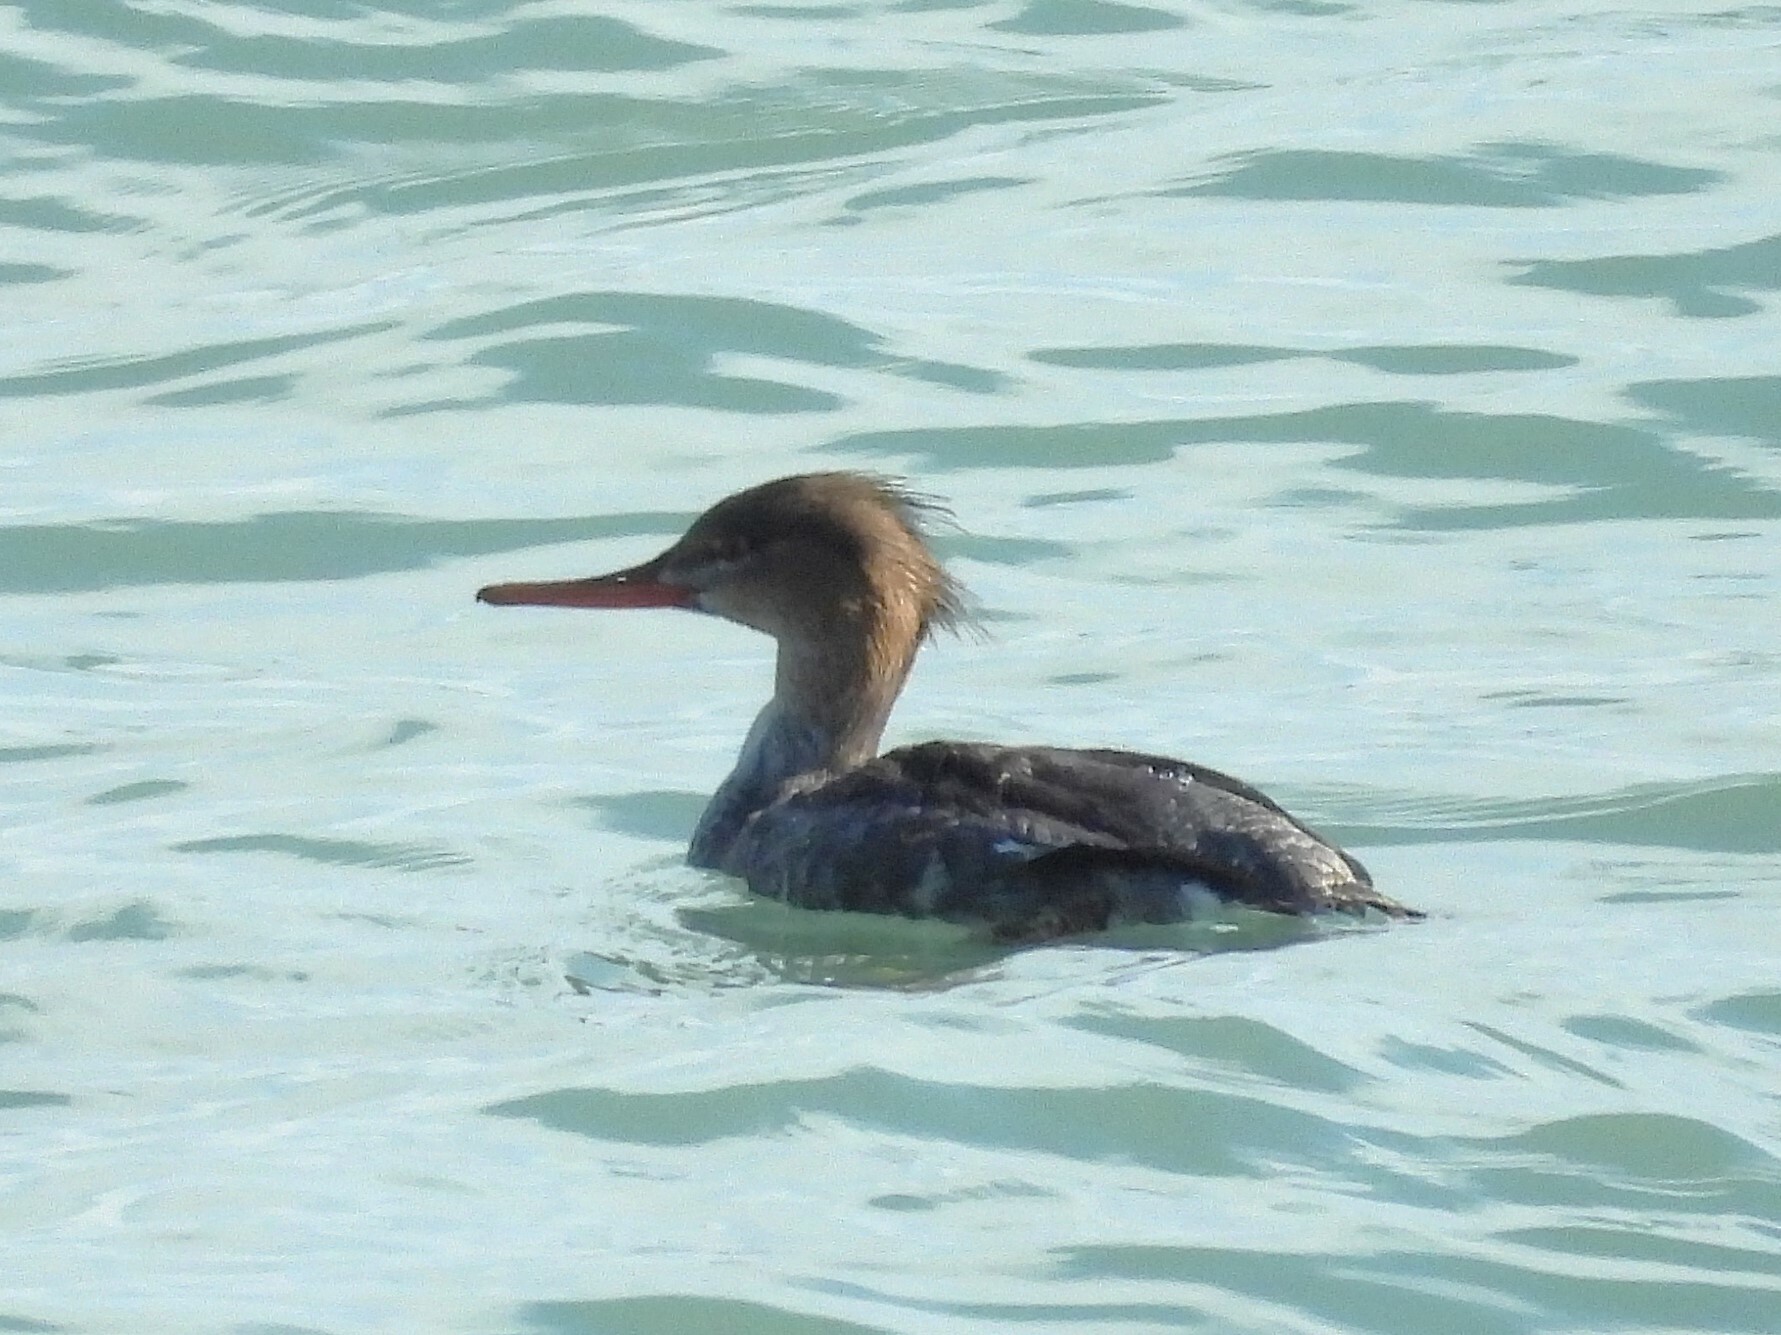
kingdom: Animalia
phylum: Chordata
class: Aves
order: Anseriformes
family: Anatidae
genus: Mergus
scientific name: Mergus serrator
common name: Red-breasted merganser
